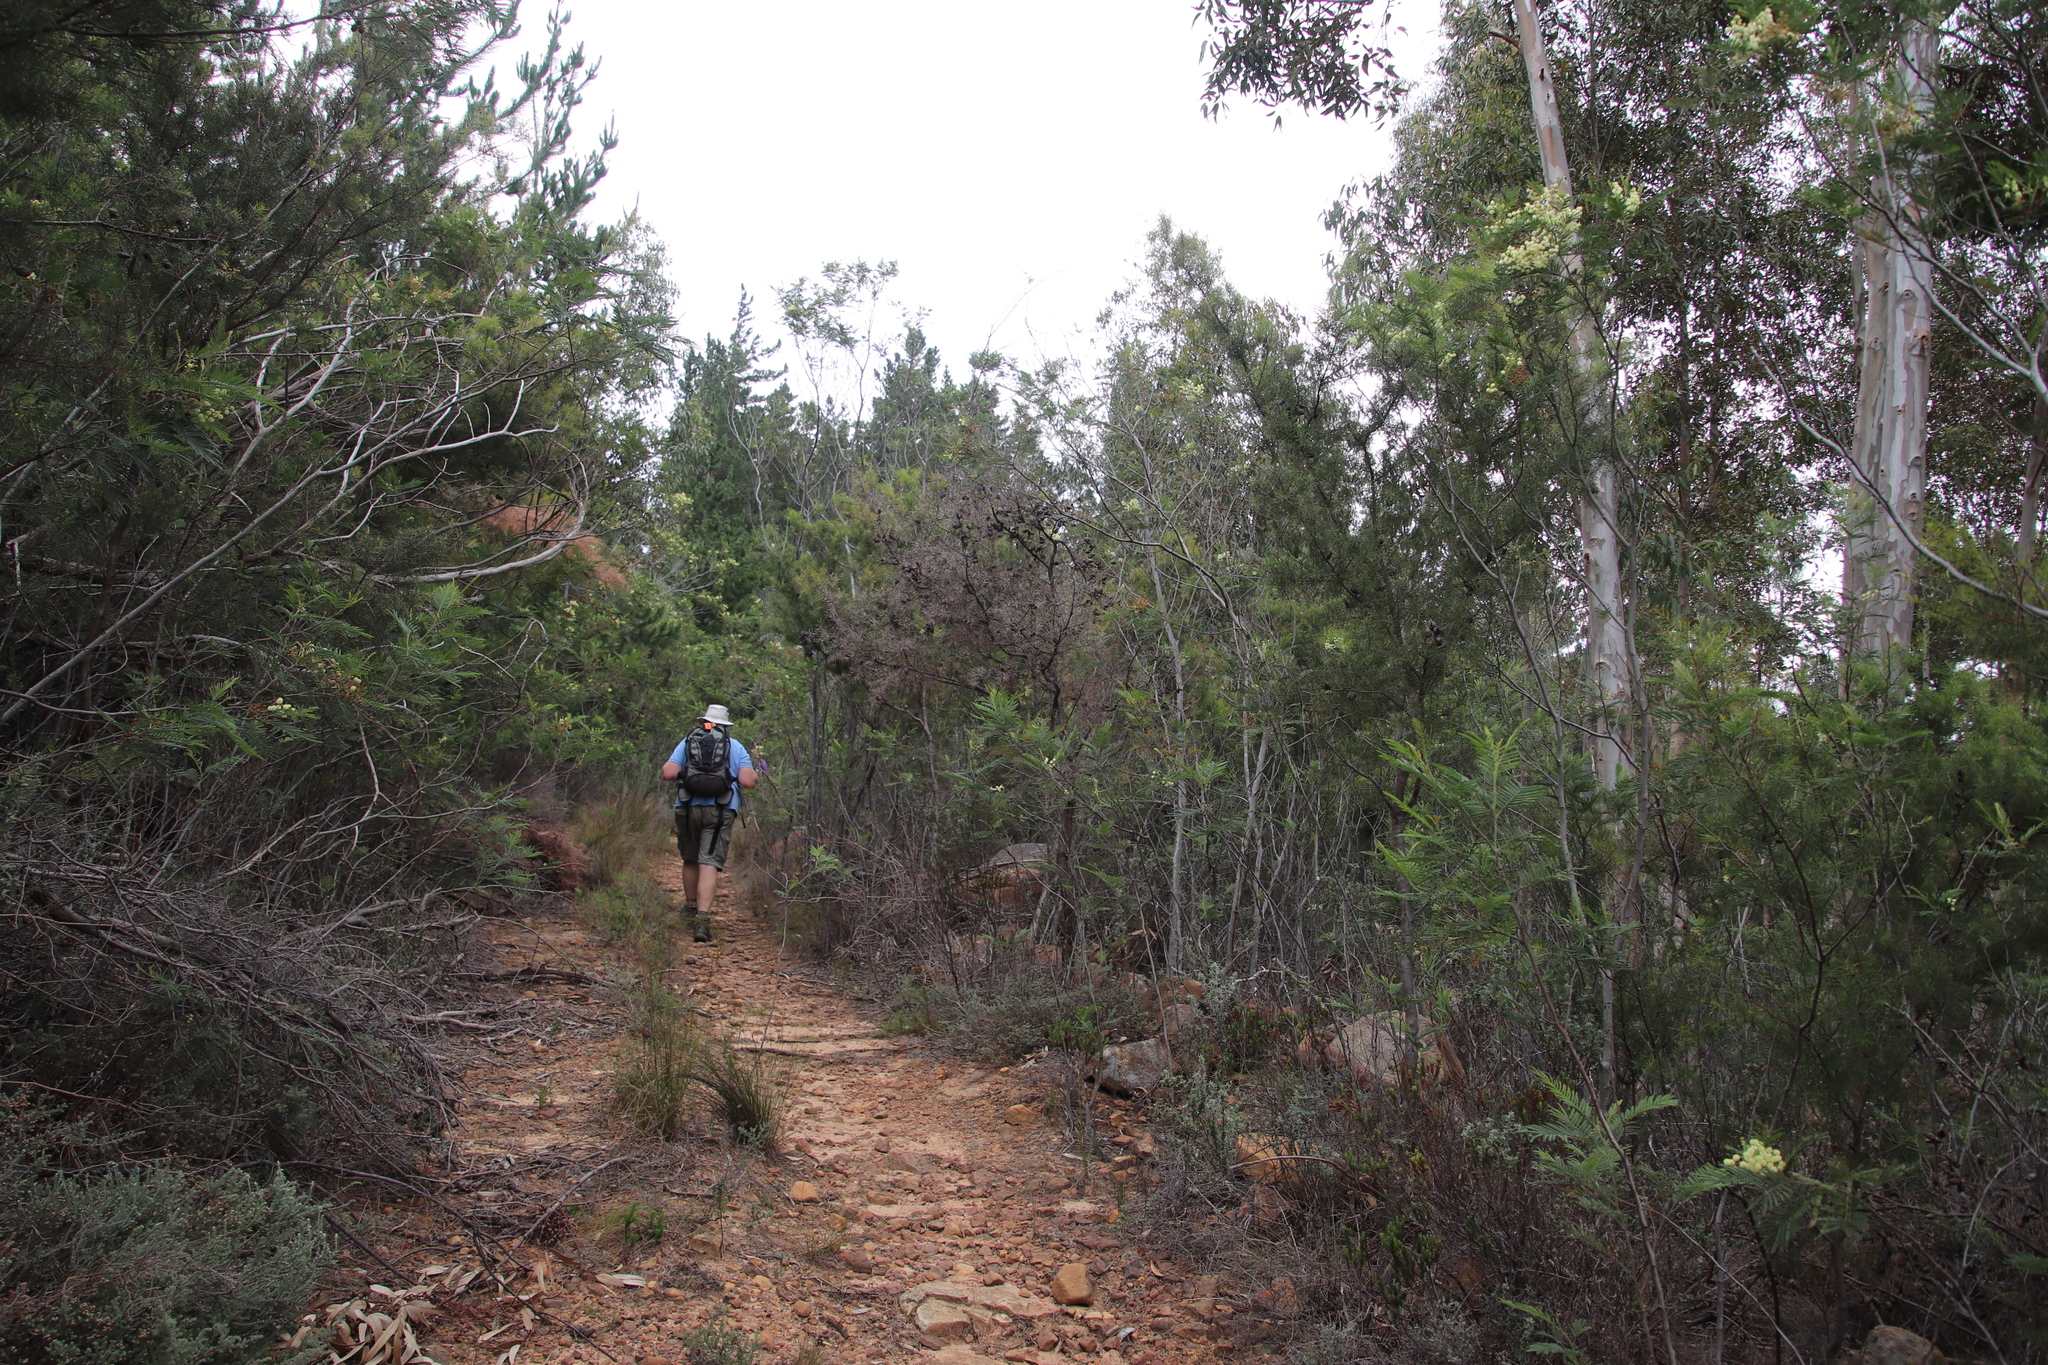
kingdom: Plantae
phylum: Tracheophyta
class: Magnoliopsida
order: Proteales
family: Proteaceae
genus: Hakea
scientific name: Hakea sericea
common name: Needle bush
